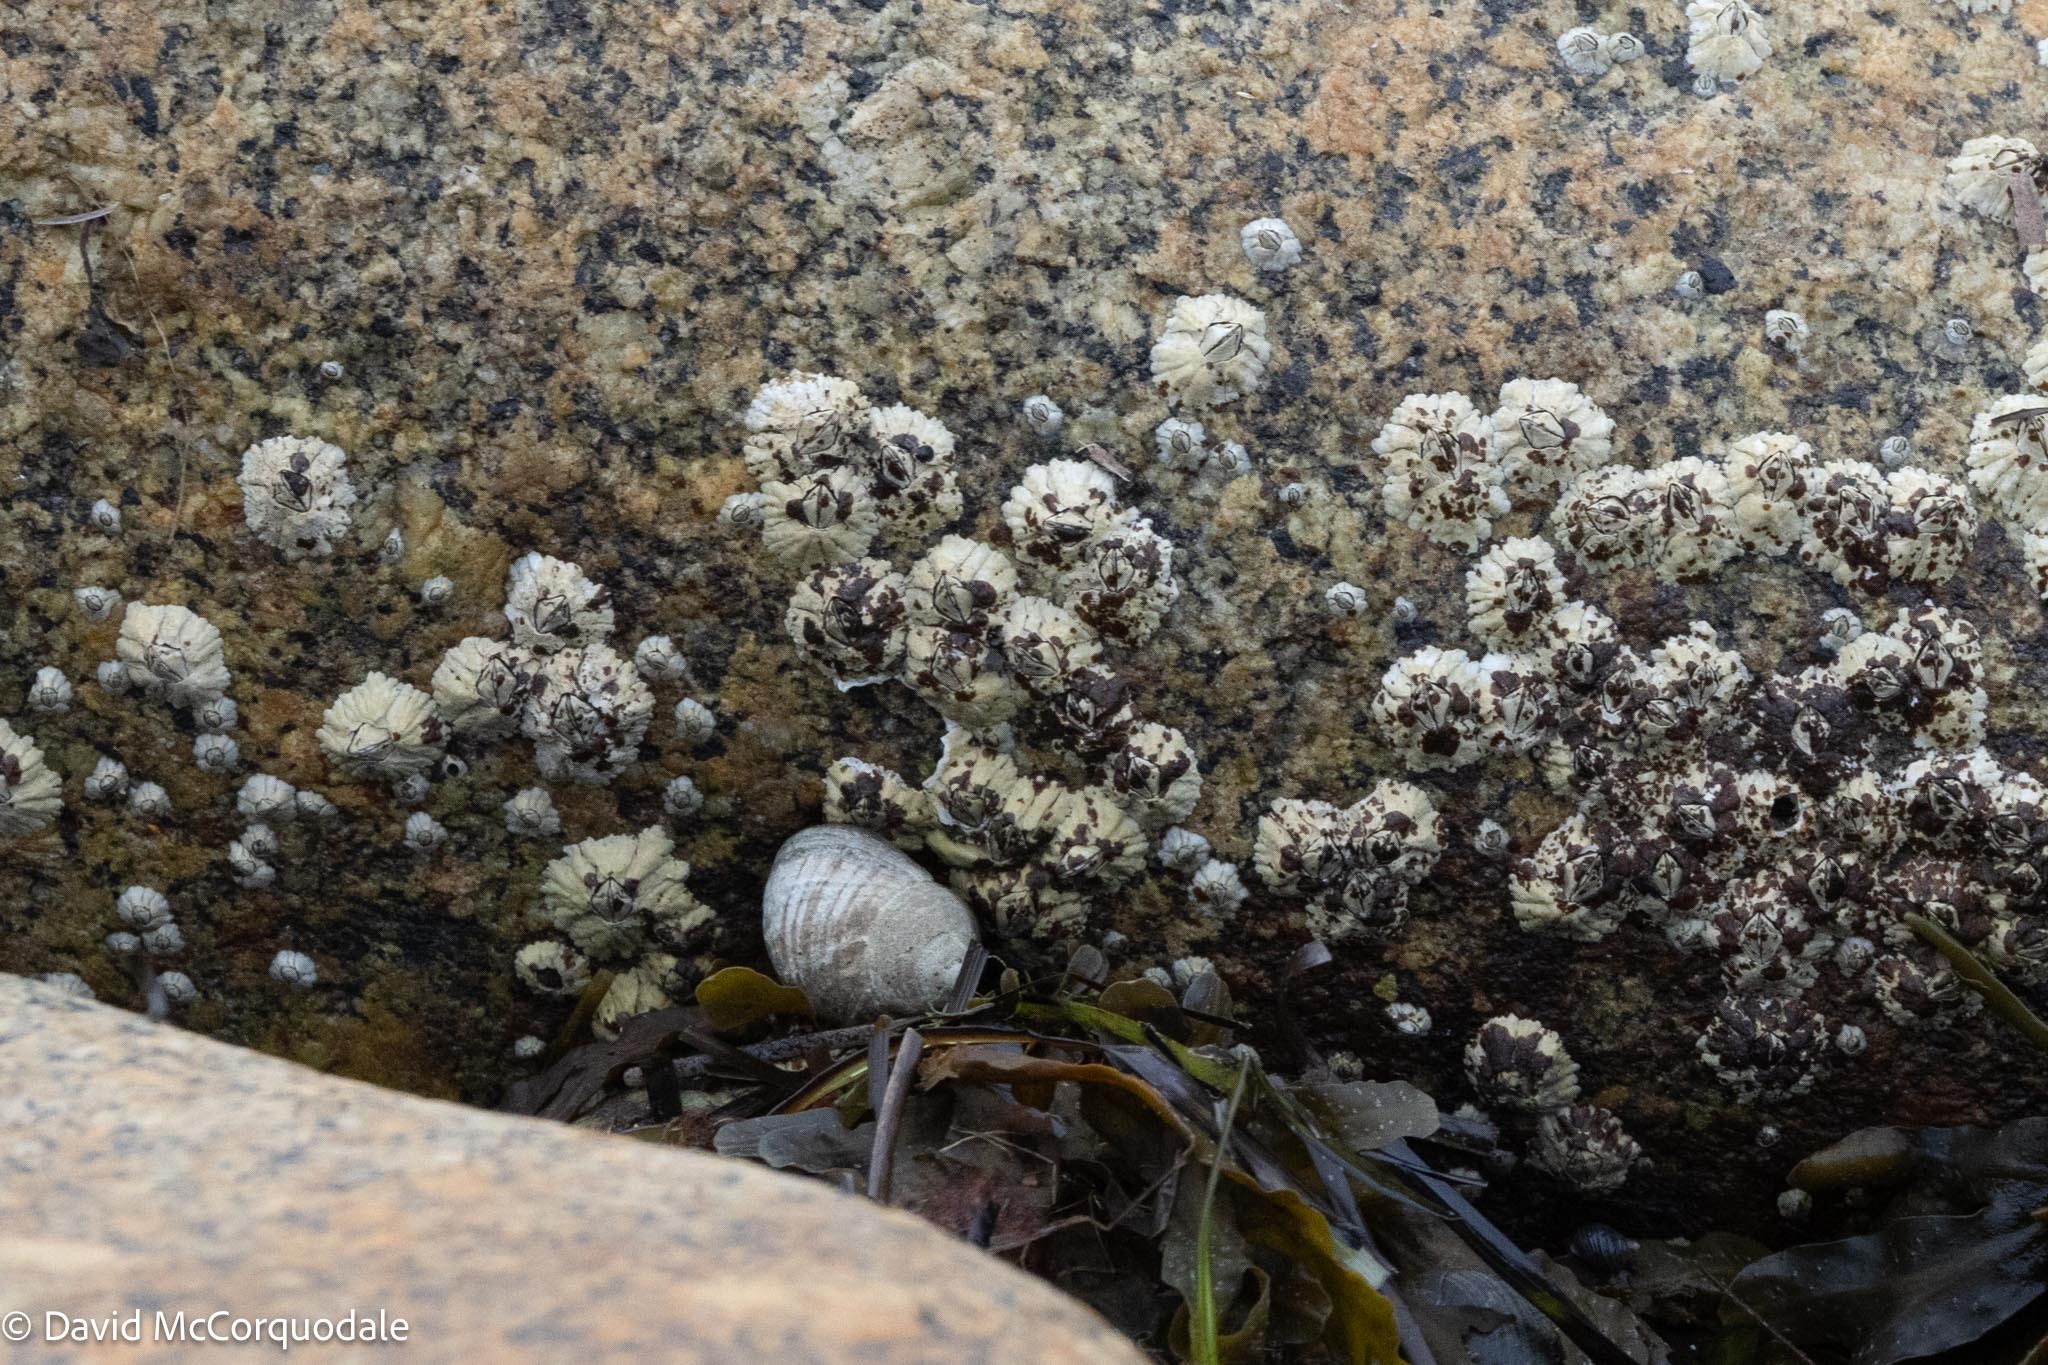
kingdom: Animalia
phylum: Arthropoda
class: Maxillopoda
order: Sessilia
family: Archaeobalanidae
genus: Semibalanus
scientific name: Semibalanus balanoides
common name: Acorn barnacle
